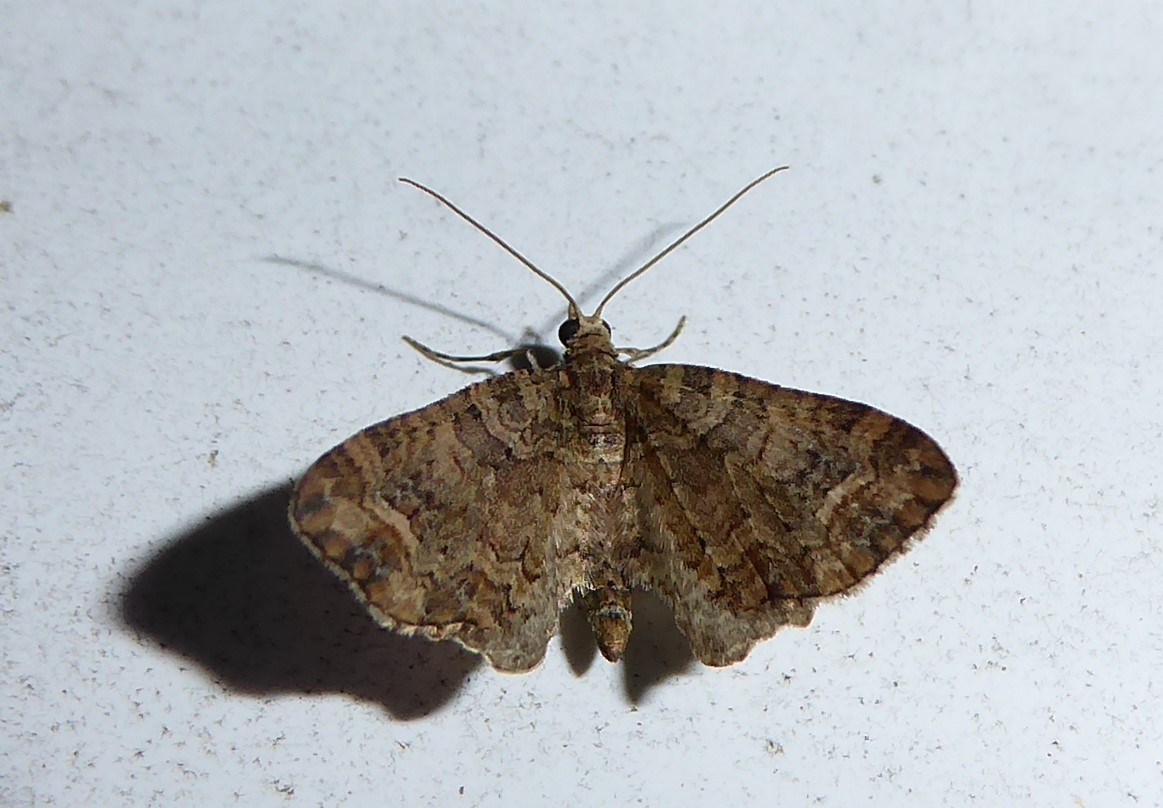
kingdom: Animalia
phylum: Arthropoda
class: Insecta
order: Lepidoptera
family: Geometridae
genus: Idaea
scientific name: Idaea mutanda
